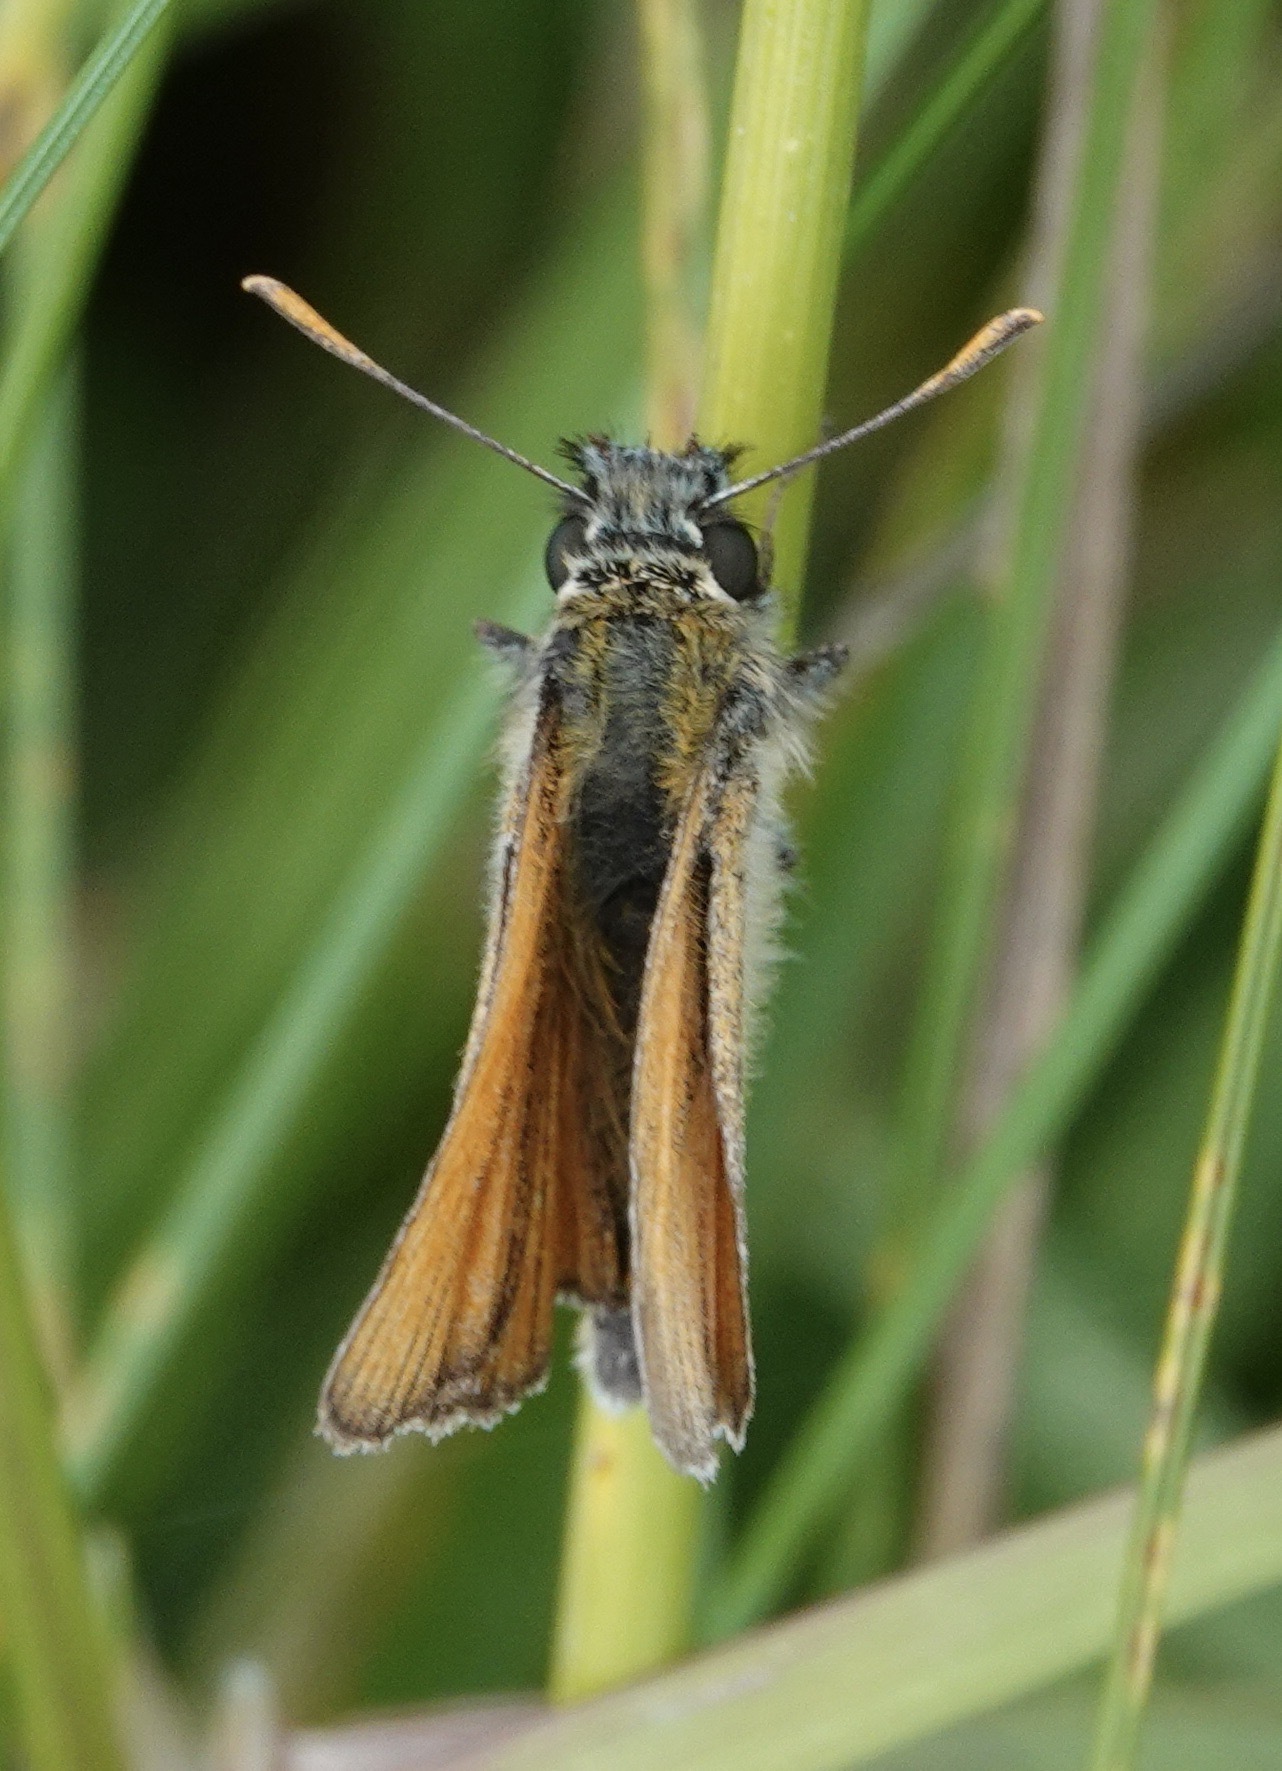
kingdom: Animalia
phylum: Arthropoda
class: Insecta
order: Lepidoptera
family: Hesperiidae
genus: Thymelicus
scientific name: Thymelicus sylvestris
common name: Small skipper
